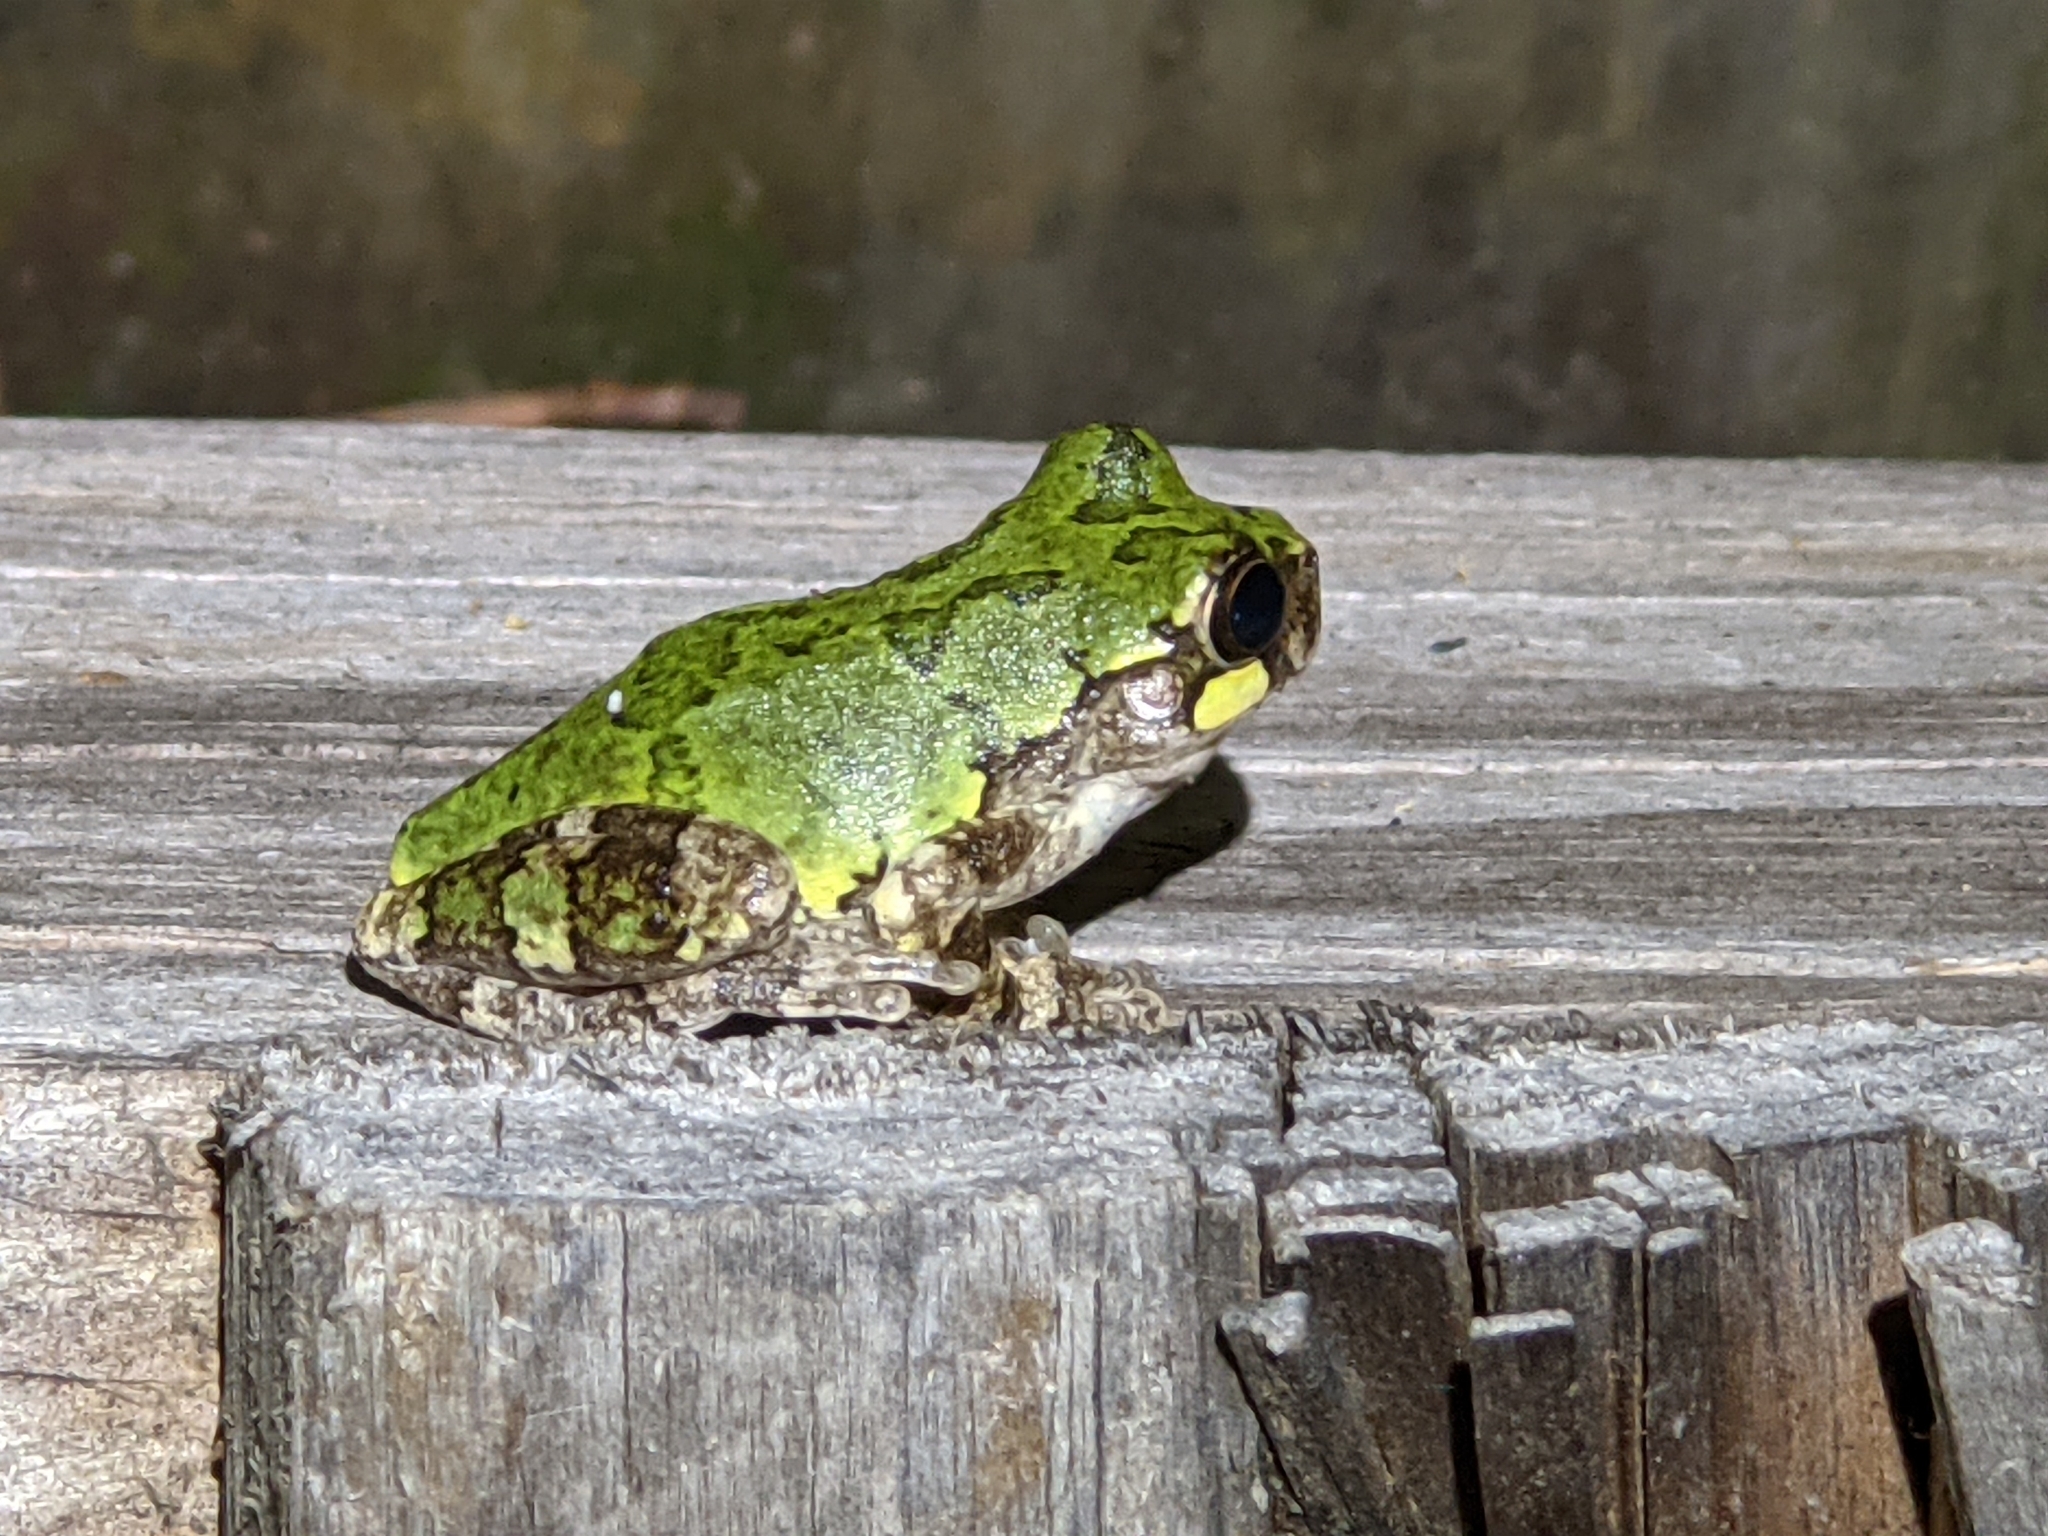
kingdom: Animalia
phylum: Chordata
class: Amphibia
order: Anura
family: Hylidae
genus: Dryophytes
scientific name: Dryophytes avivoca
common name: Bird-voiced treefrog
